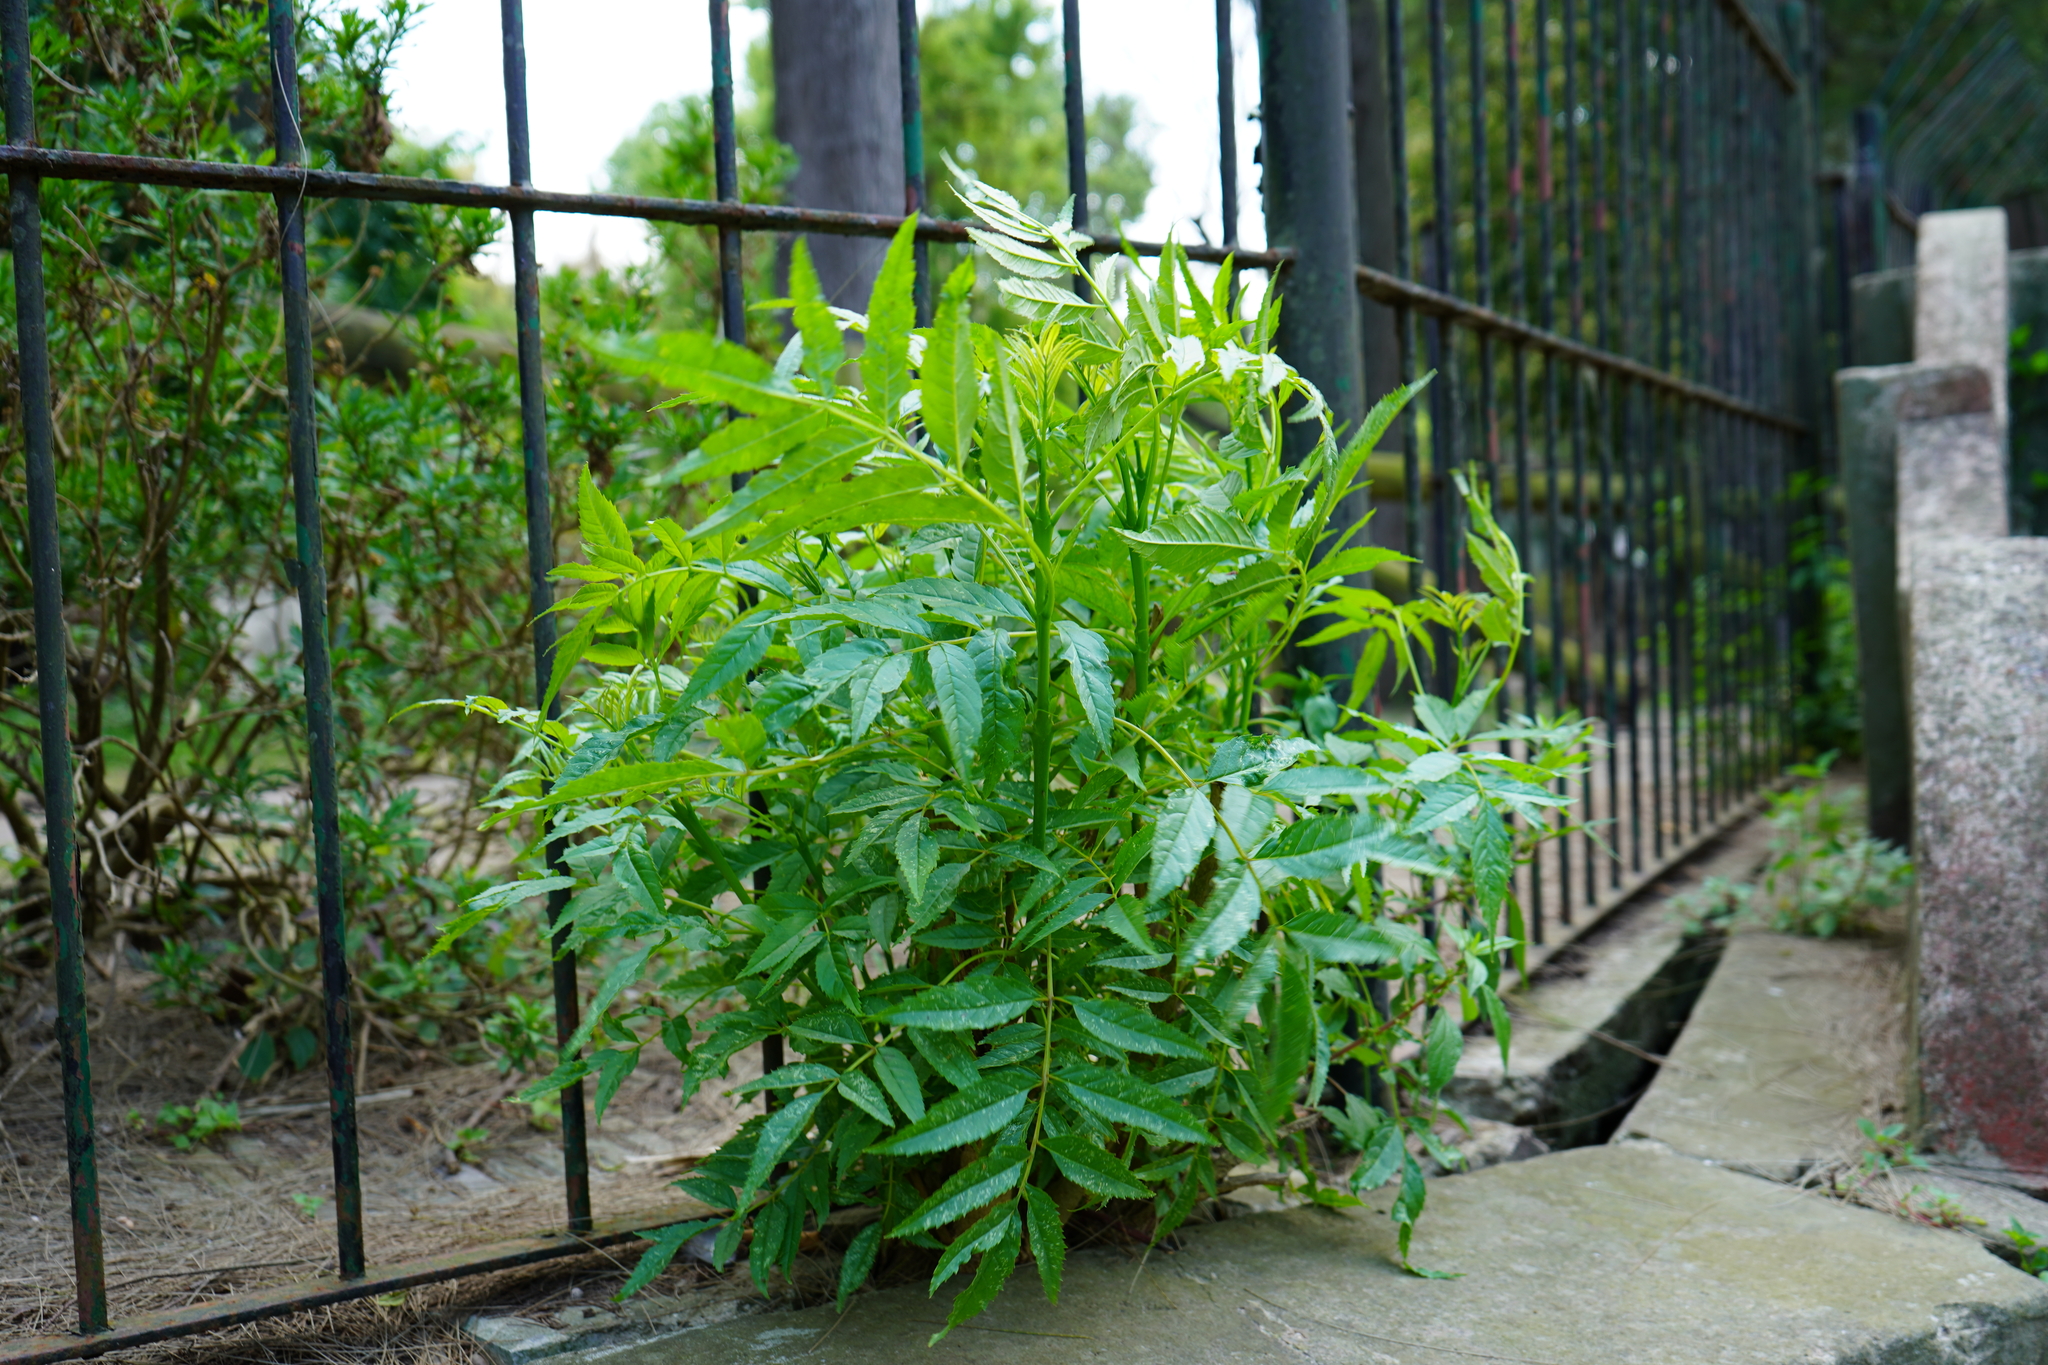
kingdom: Plantae
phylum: Tracheophyta
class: Magnoliopsida
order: Lamiales
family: Bignoniaceae
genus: Tecoma
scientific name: Tecoma stans
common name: Yellow trumpetbush
